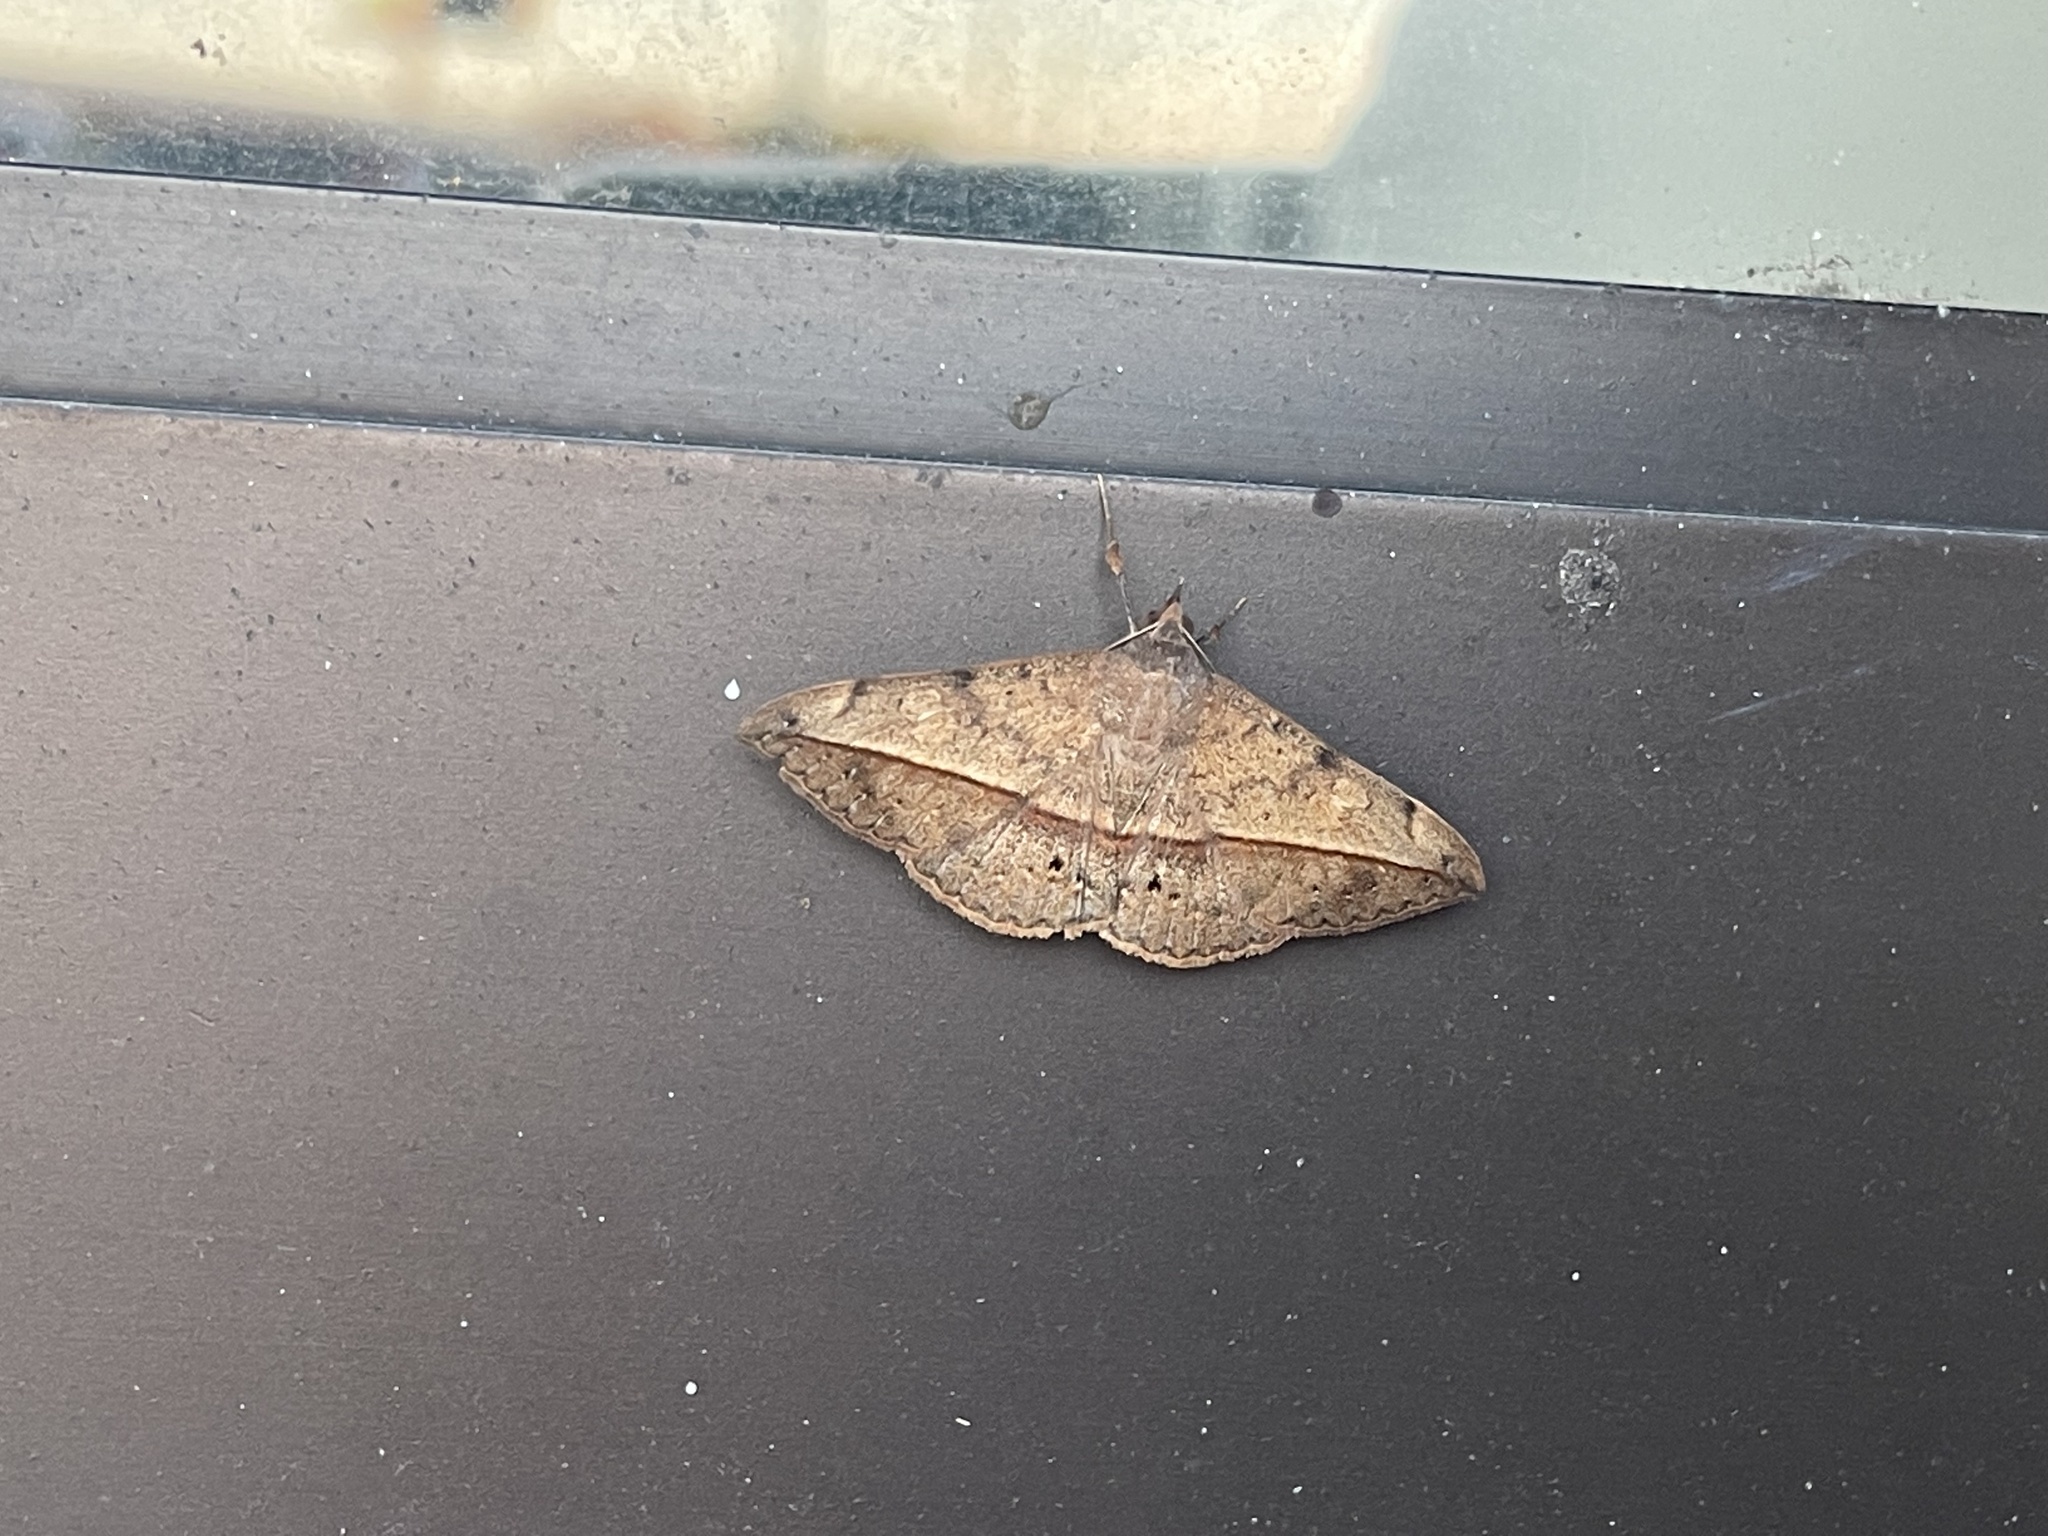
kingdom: Animalia
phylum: Arthropoda
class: Insecta
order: Lepidoptera
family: Erebidae
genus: Anticarsia
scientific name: Anticarsia gemmatalis
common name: Cutworm moth
